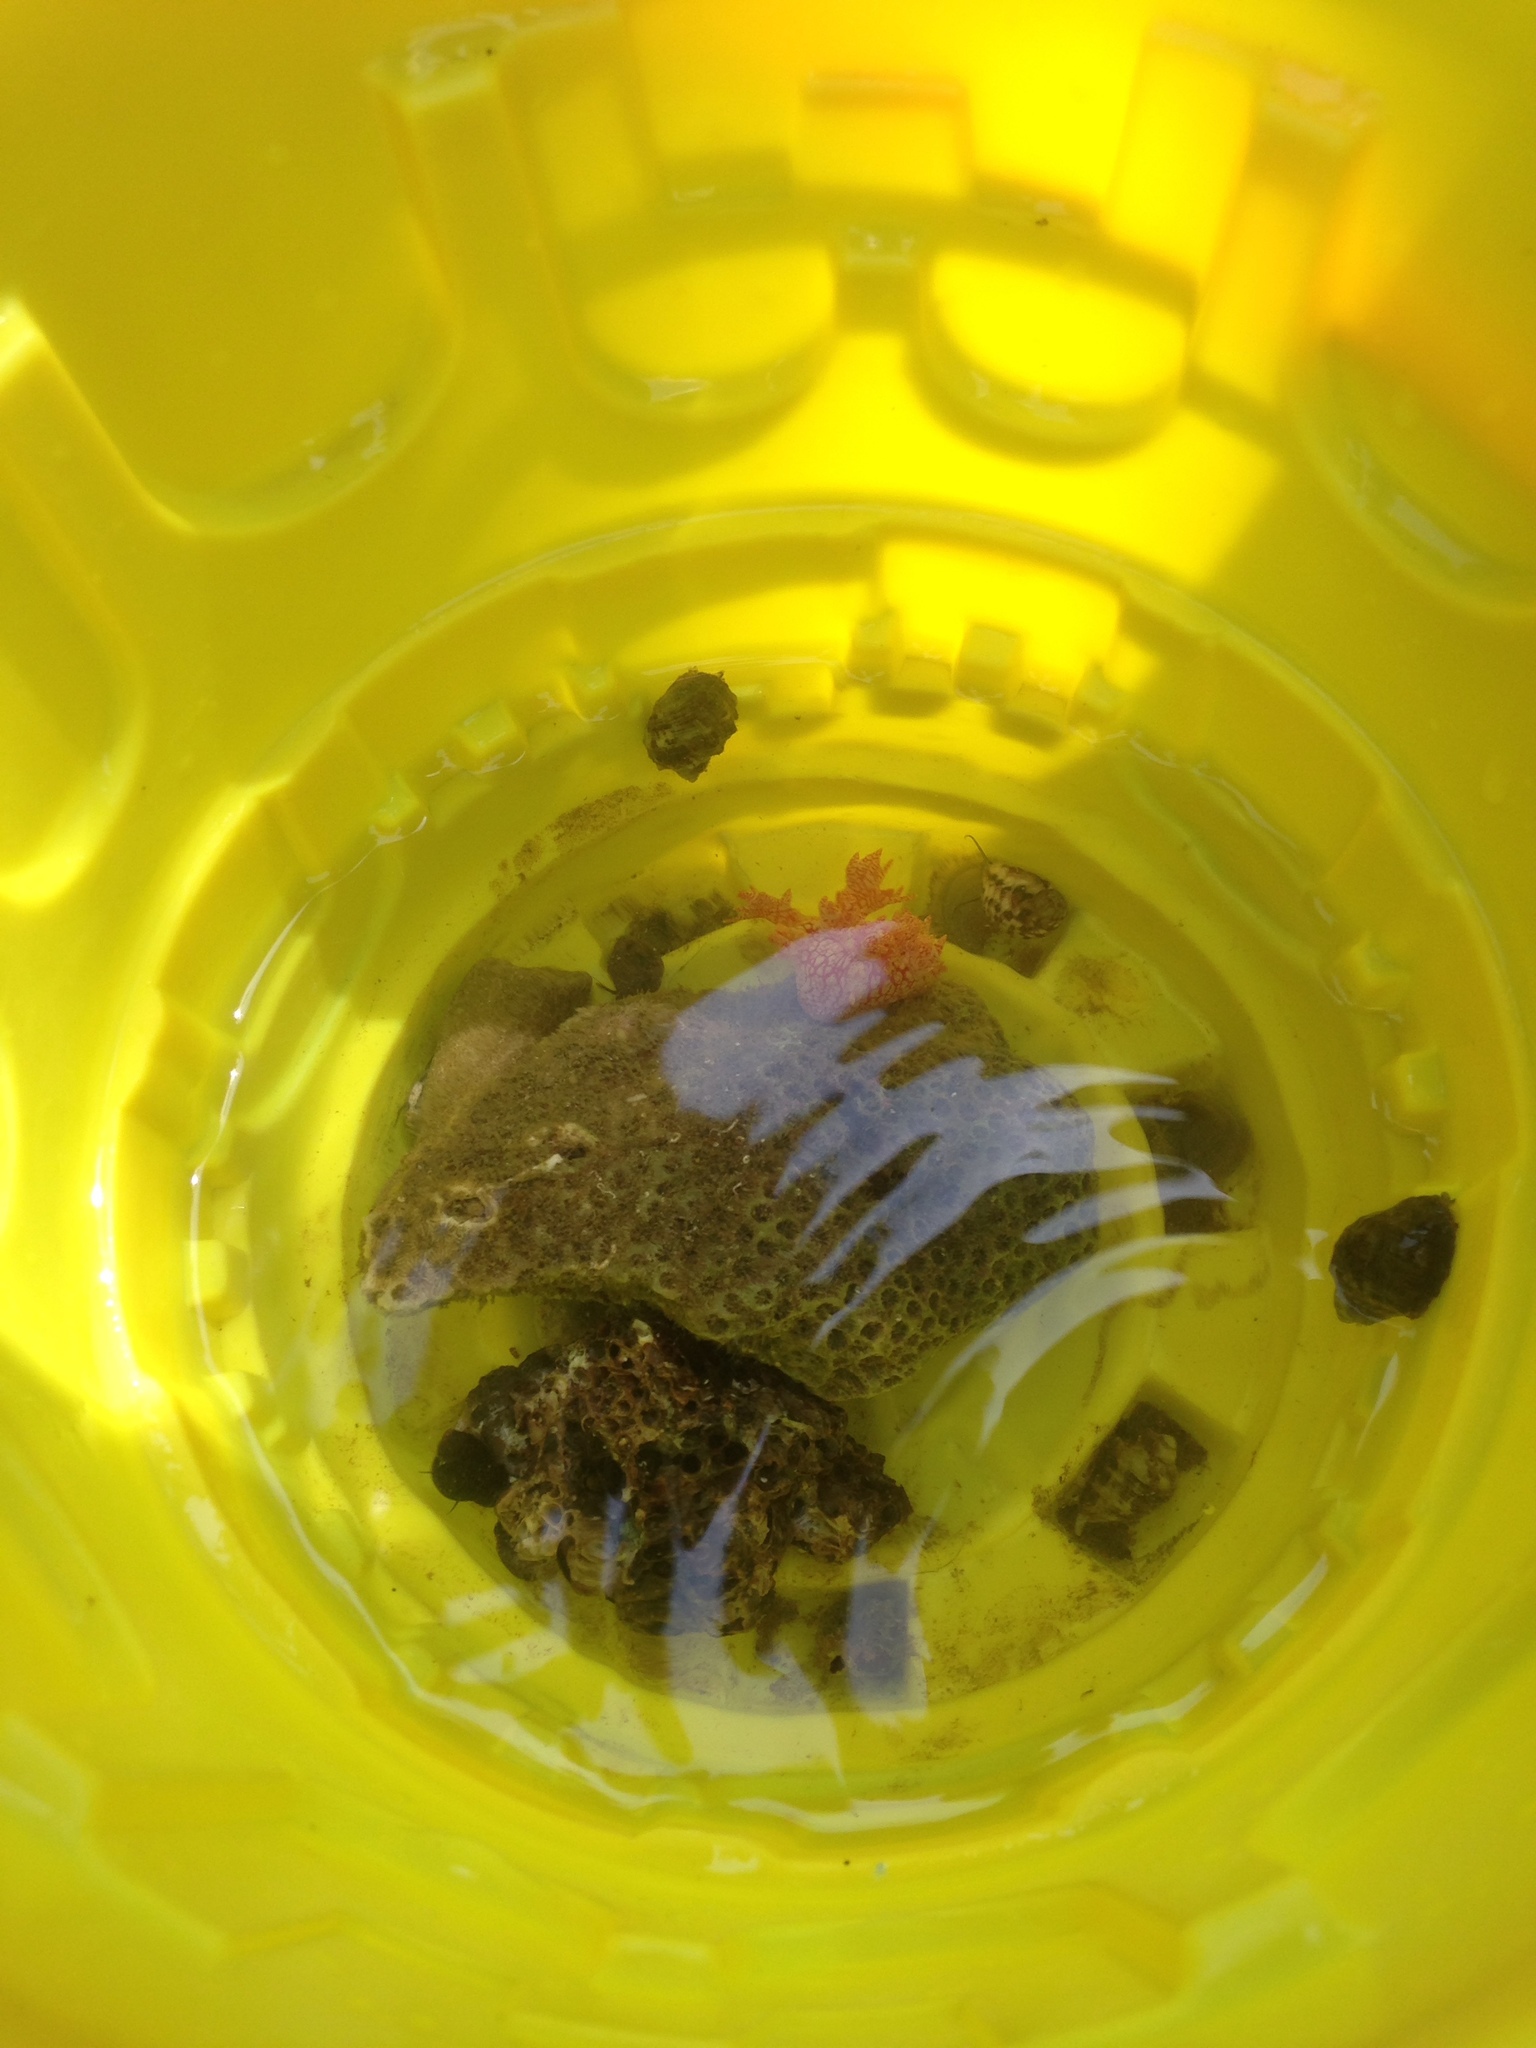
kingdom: Animalia
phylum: Mollusca
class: Gastropoda
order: Nudibranchia
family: Bornellidae
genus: Bornella
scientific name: Bornella calcarata
